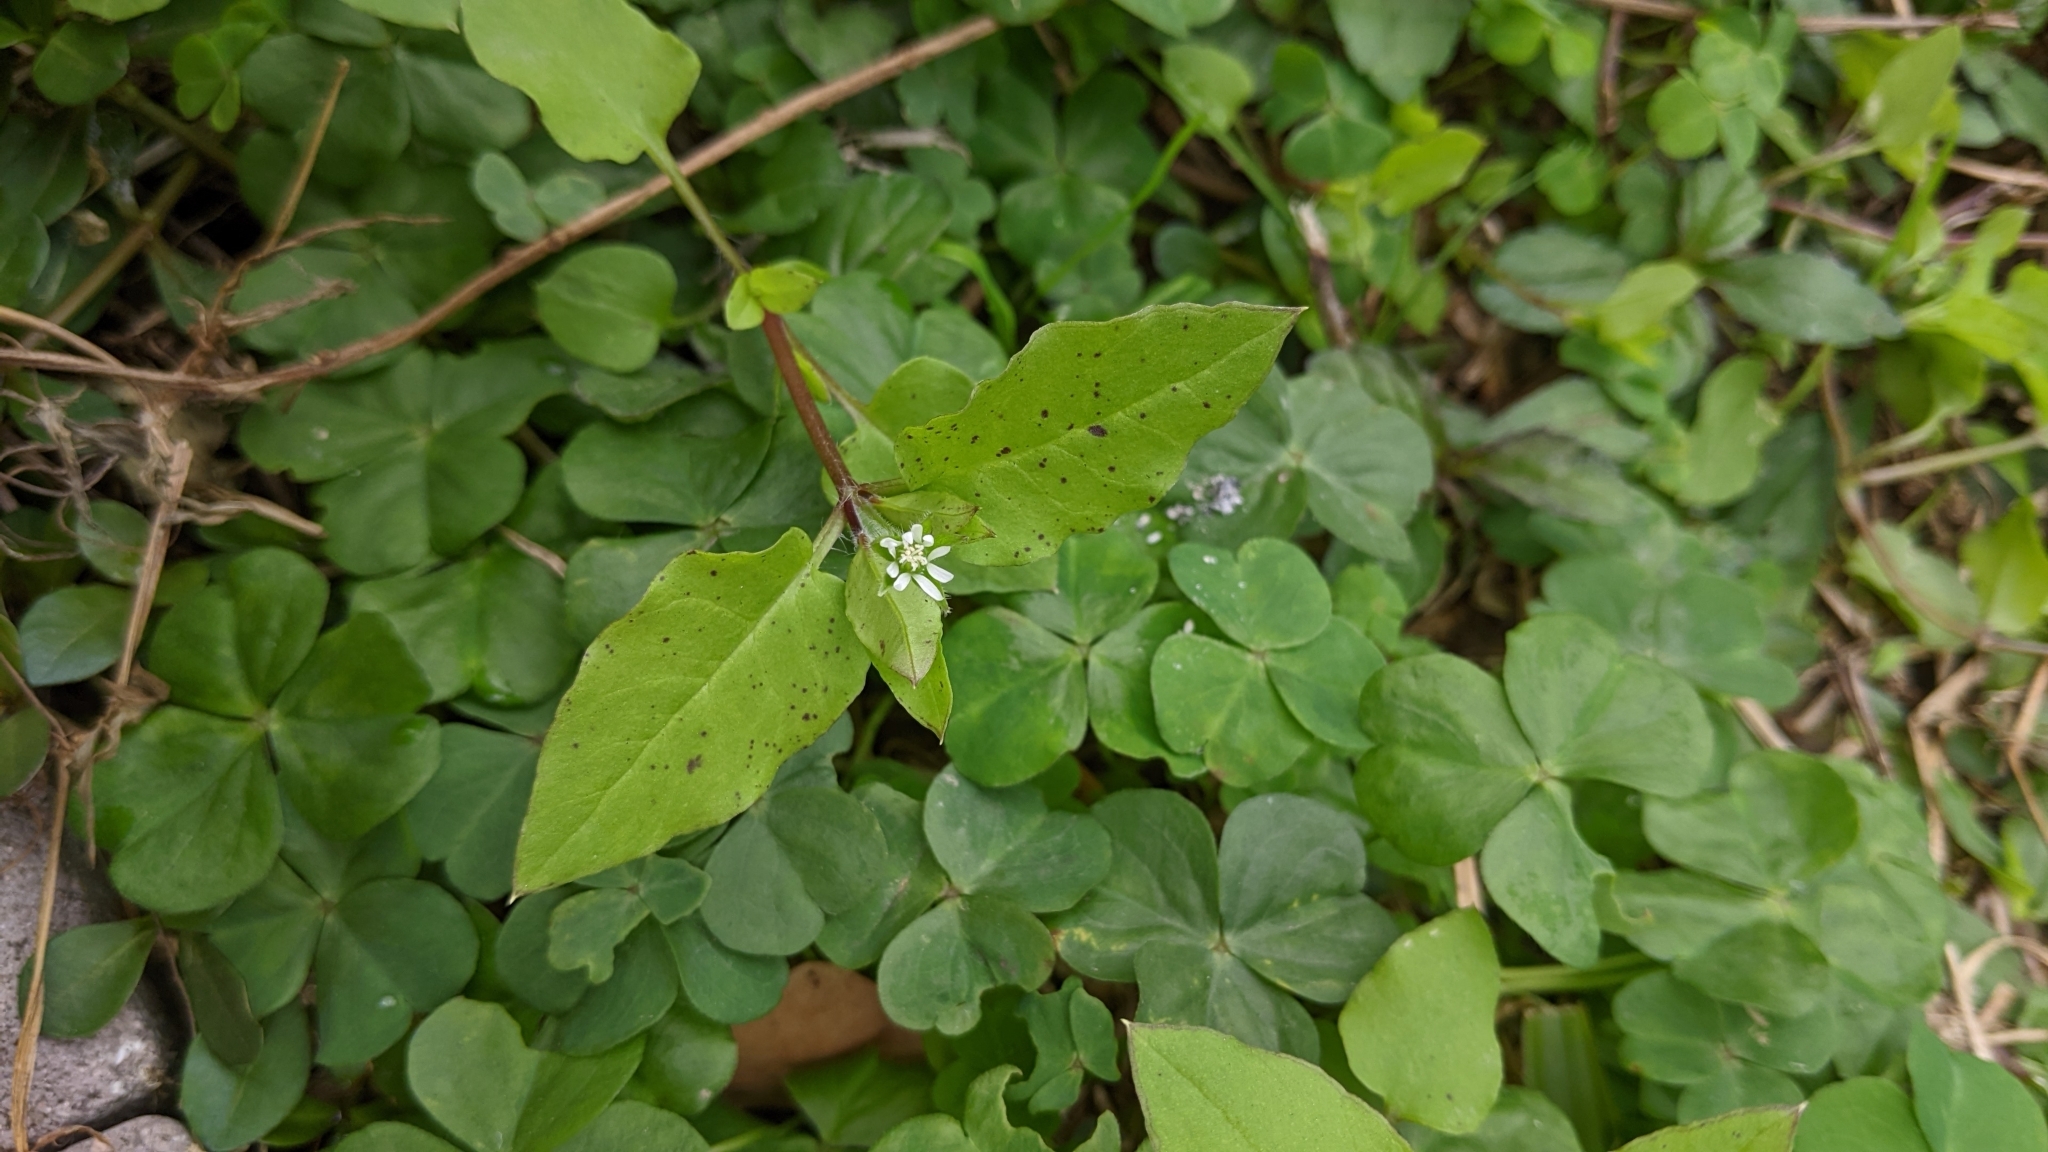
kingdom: Plantae
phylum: Tracheophyta
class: Magnoliopsida
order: Caryophyllales
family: Caryophyllaceae
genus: Stellaria
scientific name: Stellaria aquatica
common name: Water chickweed
